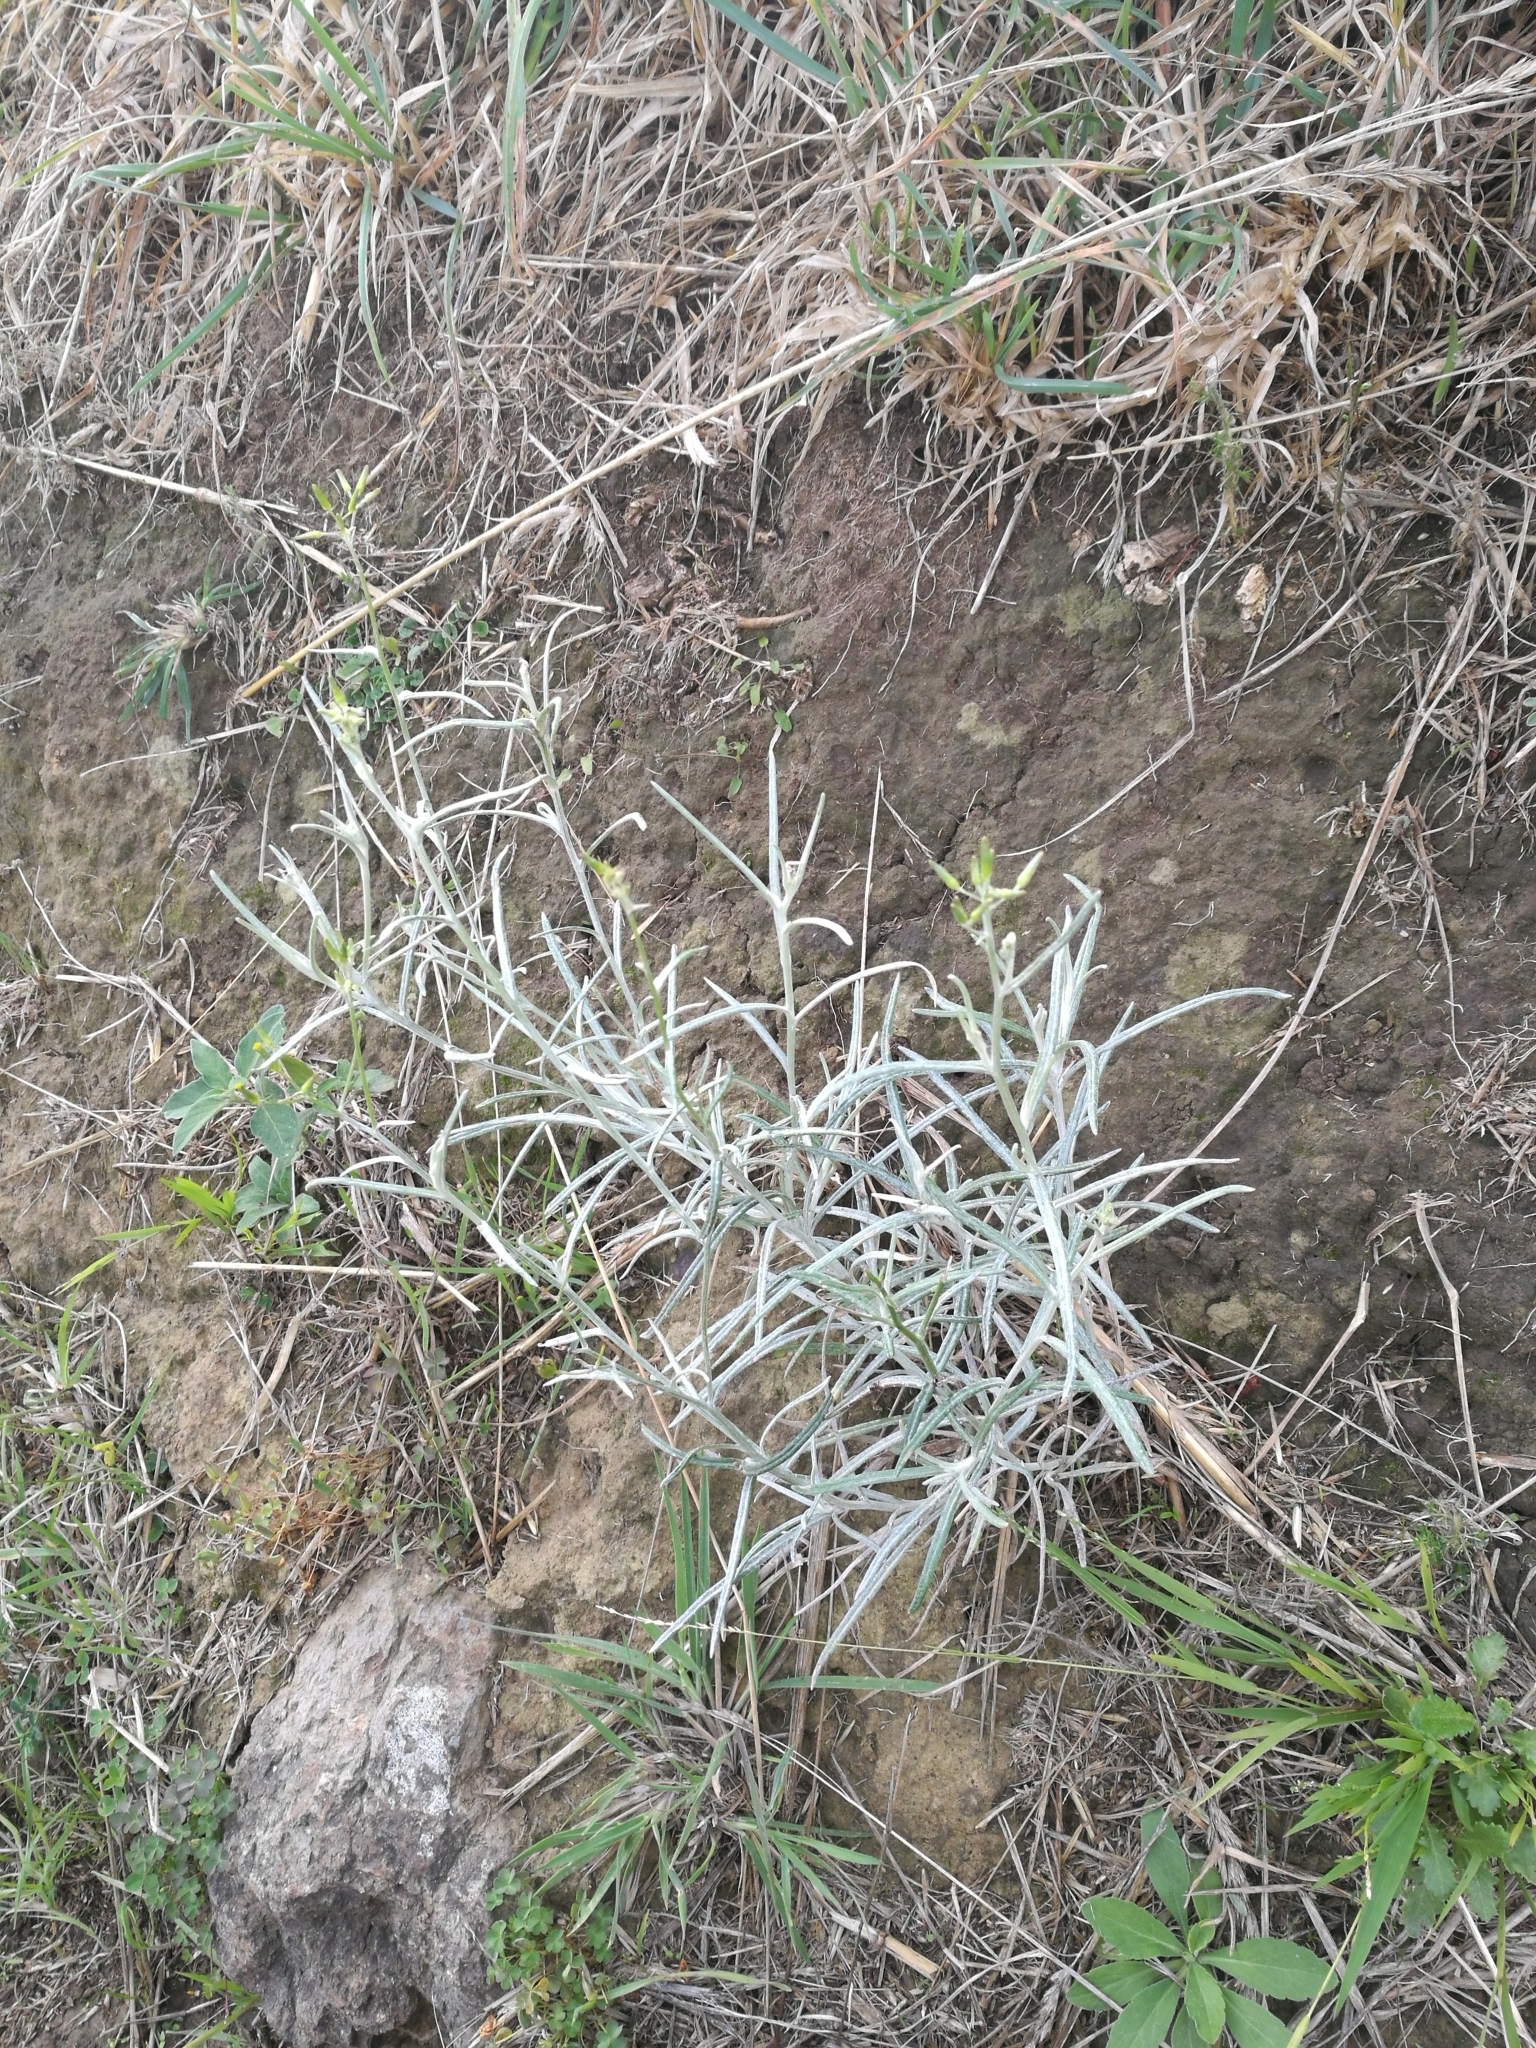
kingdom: Plantae
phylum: Tracheophyta
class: Magnoliopsida
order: Asterales
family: Asteraceae
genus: Senecio
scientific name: Senecio quadridentatus
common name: Cotton fireweed
